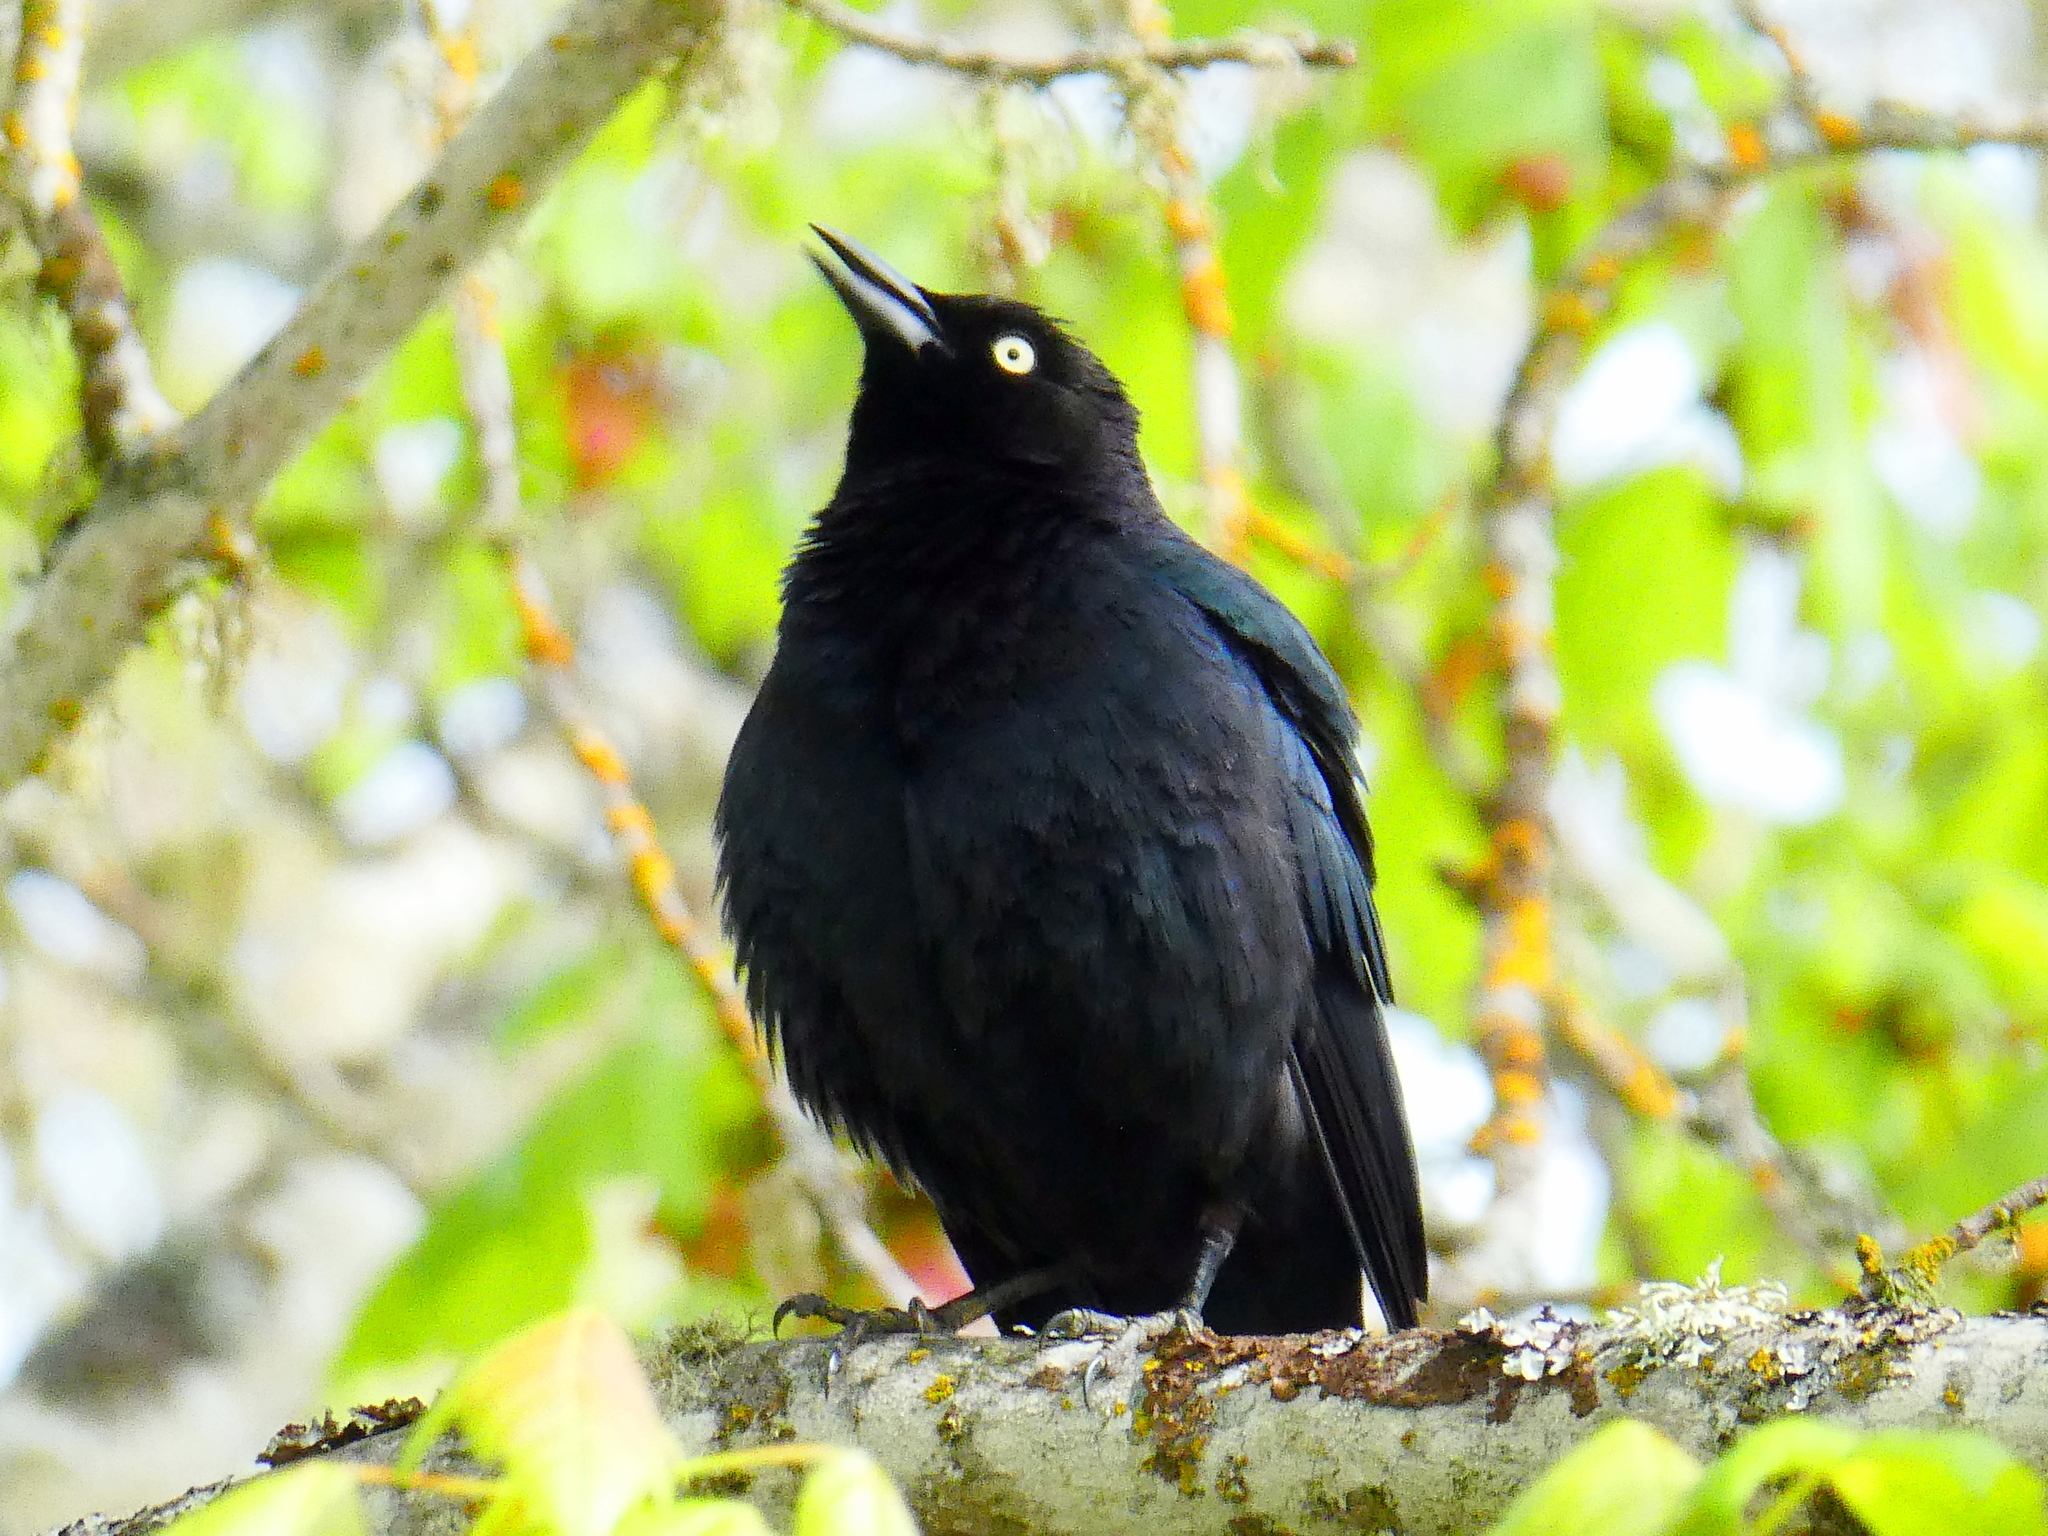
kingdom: Animalia
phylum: Chordata
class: Aves
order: Passeriformes
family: Icteridae
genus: Euphagus
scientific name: Euphagus cyanocephalus
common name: Brewer's blackbird
